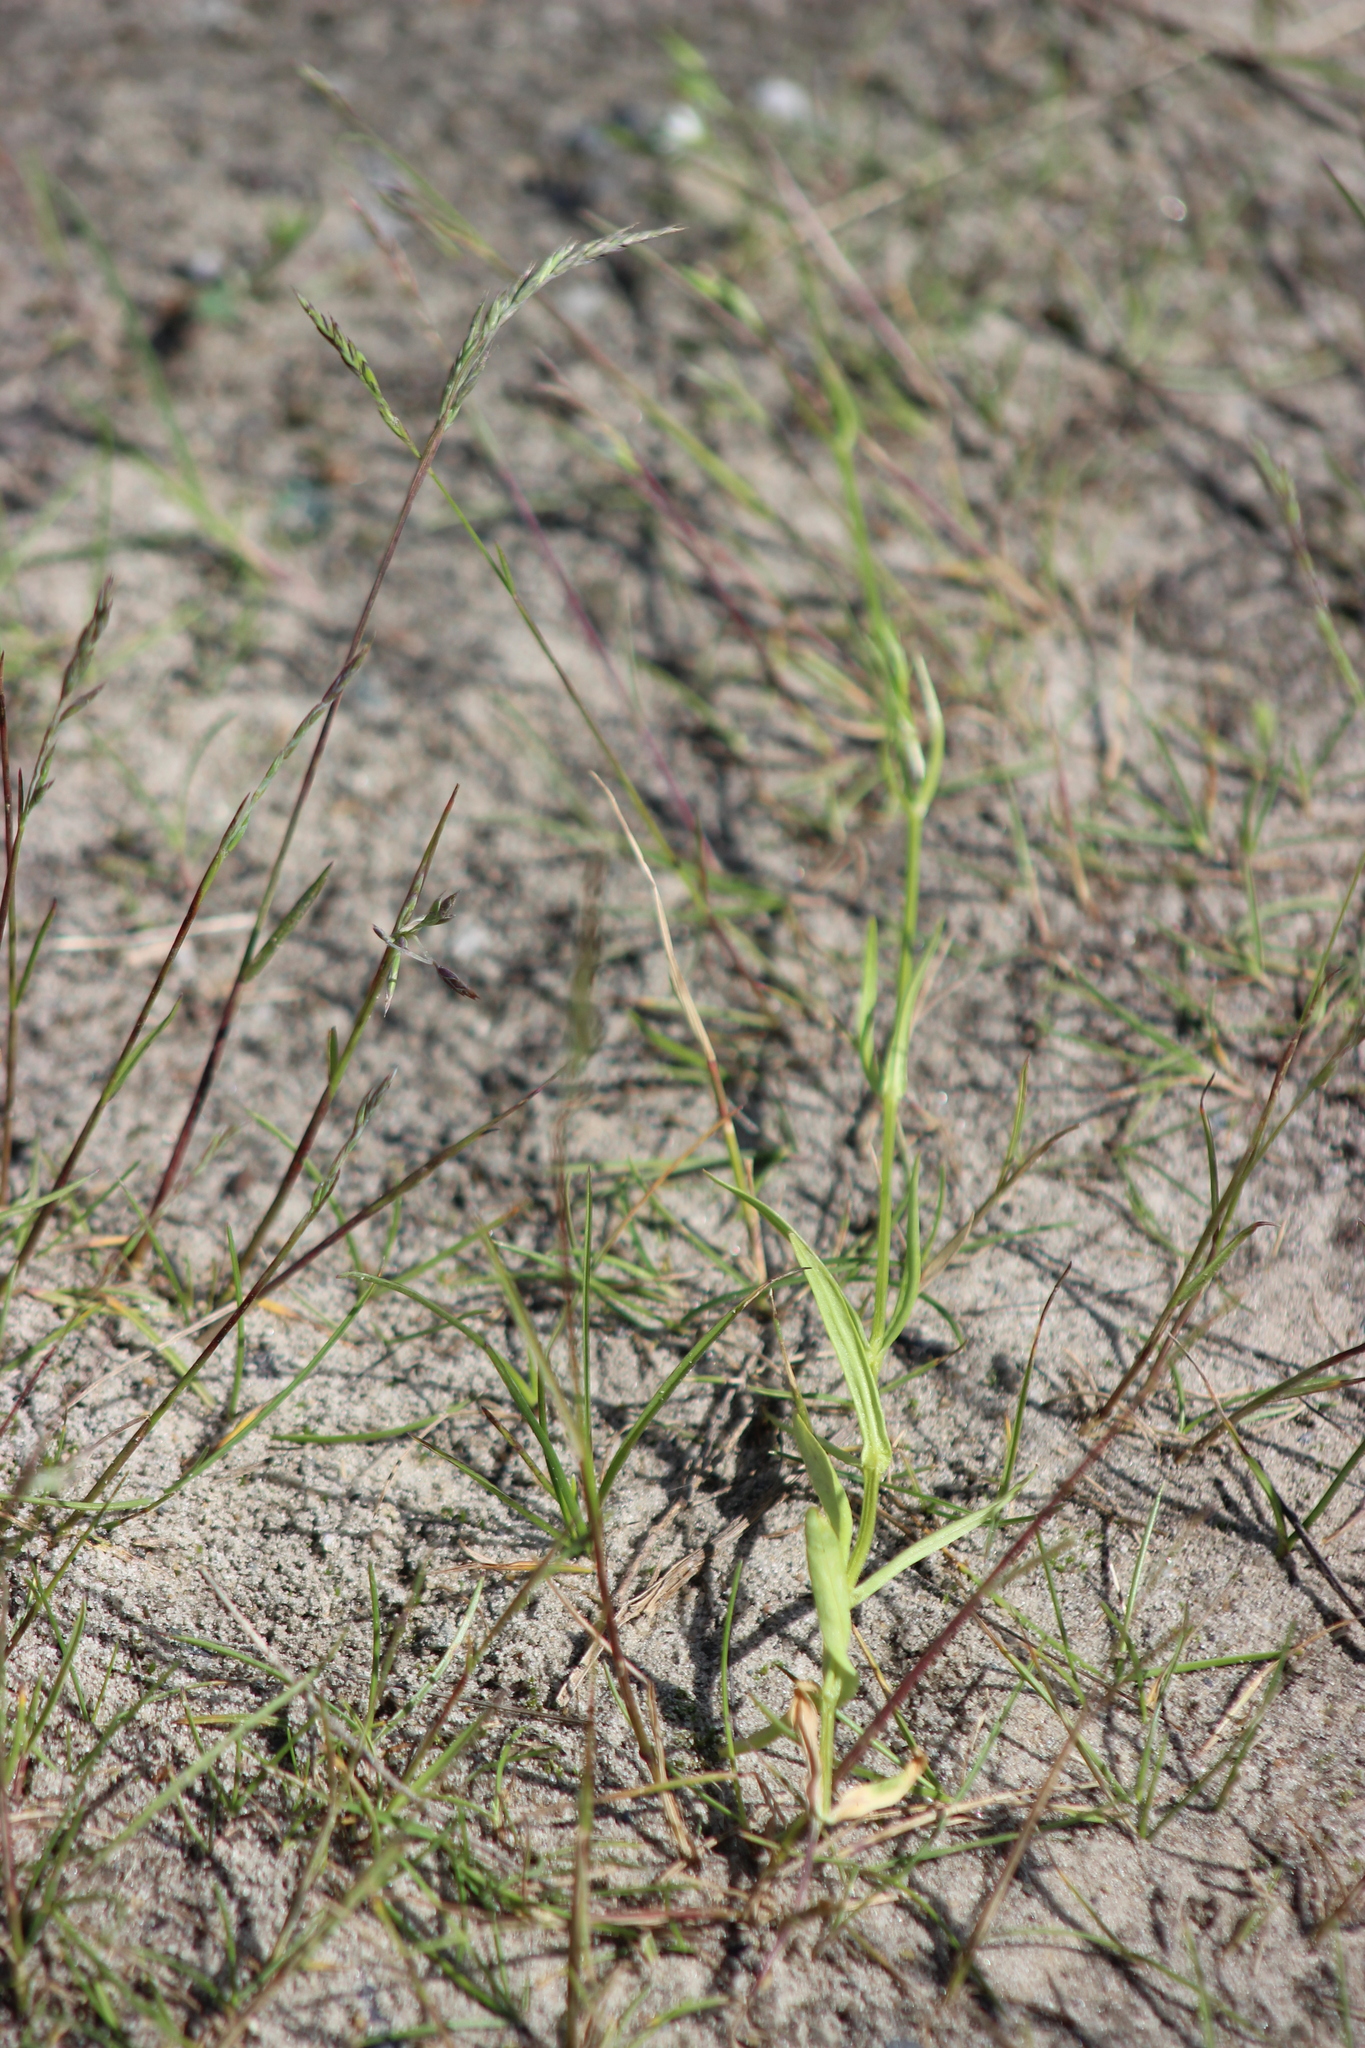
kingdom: Plantae
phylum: Tracheophyta
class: Magnoliopsida
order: Caryophyllales
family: Caryophyllaceae
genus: Stellaria
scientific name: Stellaria graminea
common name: Grass-like starwort
